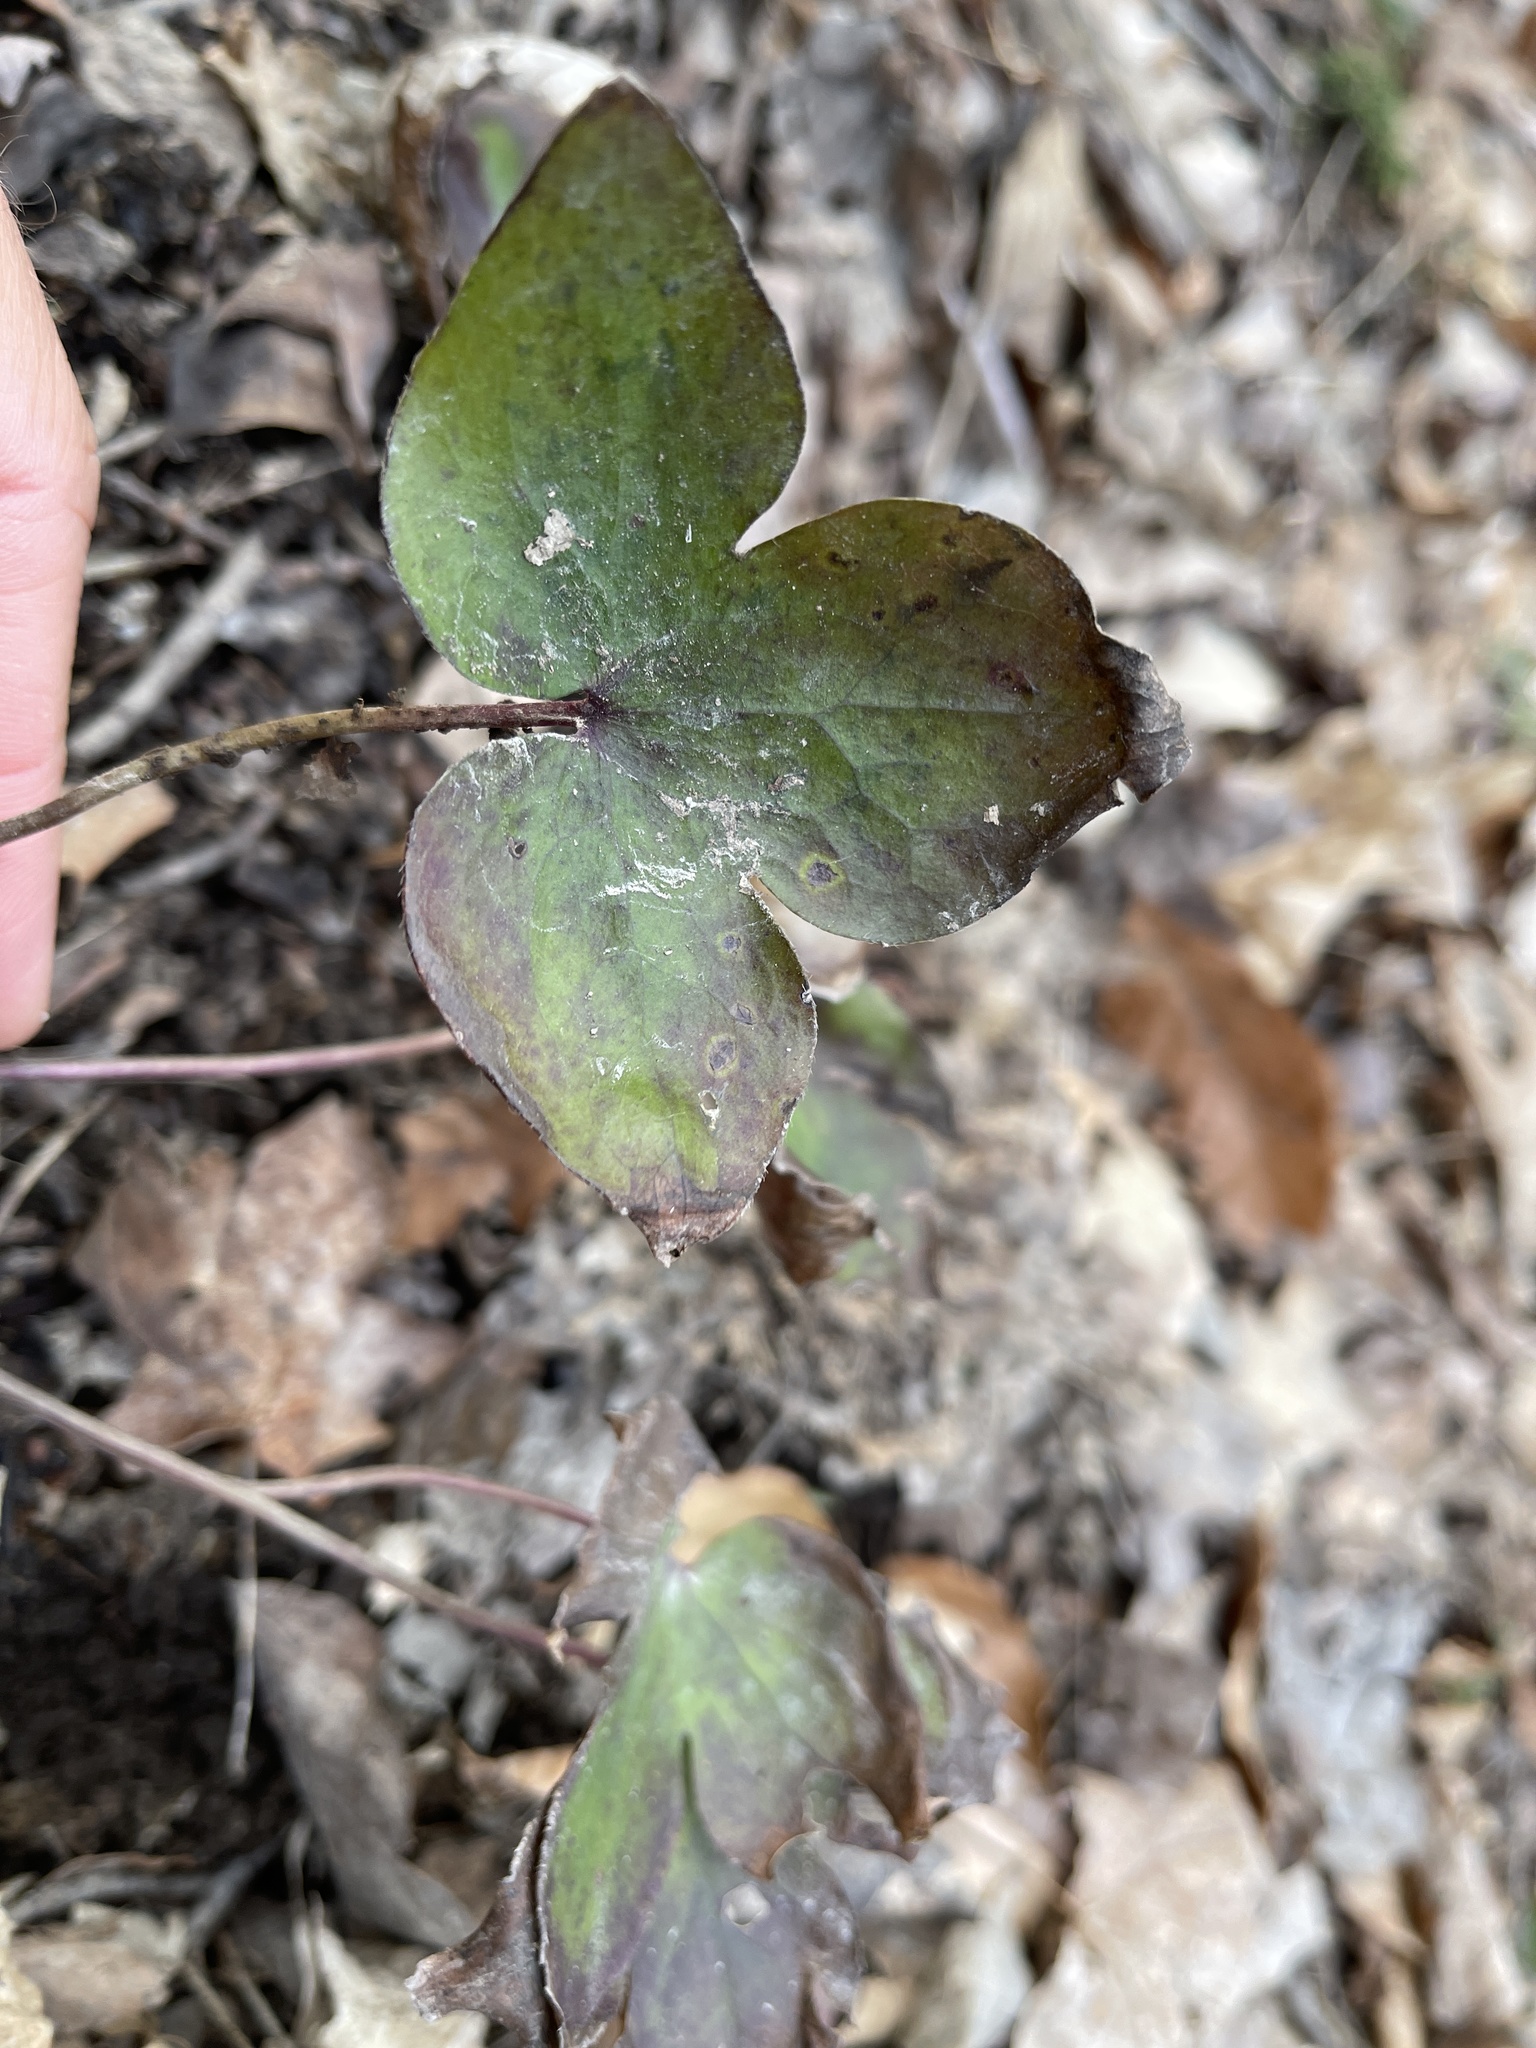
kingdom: Plantae
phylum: Tracheophyta
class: Magnoliopsida
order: Ranunculales
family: Ranunculaceae
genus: Hepatica
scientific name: Hepatica acutiloba
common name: Sharp-lobed hepatica
